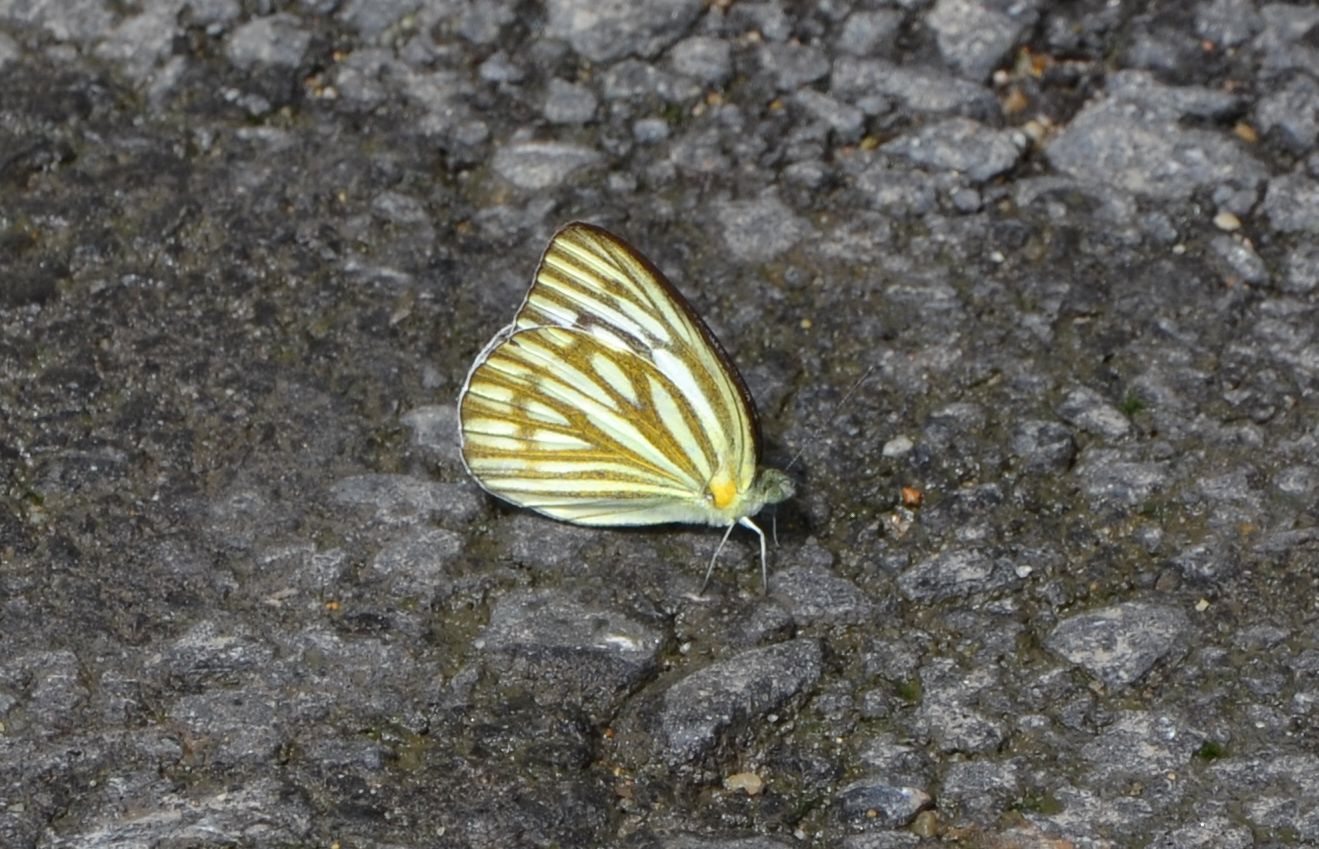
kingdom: Animalia
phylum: Arthropoda
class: Insecta
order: Lepidoptera
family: Pieridae
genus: Cepora
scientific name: Cepora nerissa
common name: Common gull
